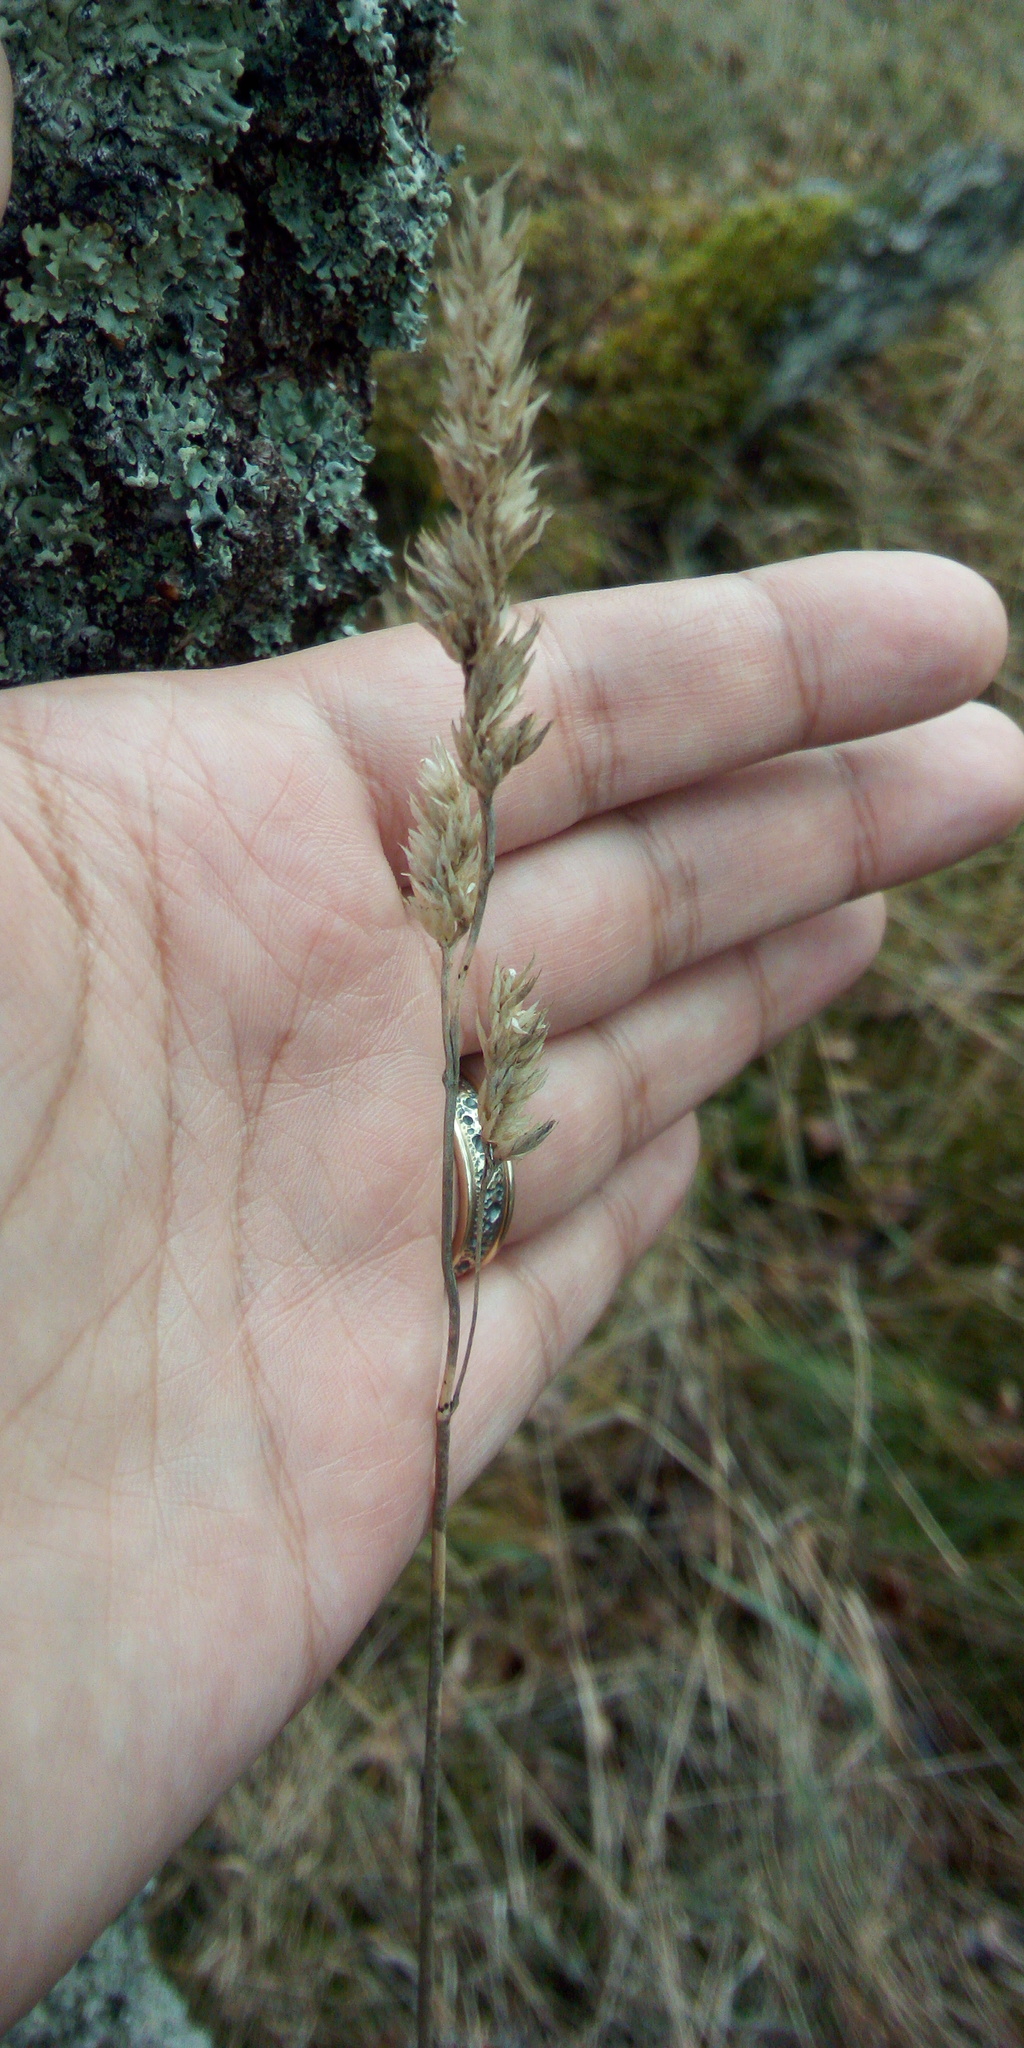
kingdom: Plantae
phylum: Tracheophyta
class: Liliopsida
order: Poales
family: Poaceae
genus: Dactylis
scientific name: Dactylis glomerata
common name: Orchardgrass
